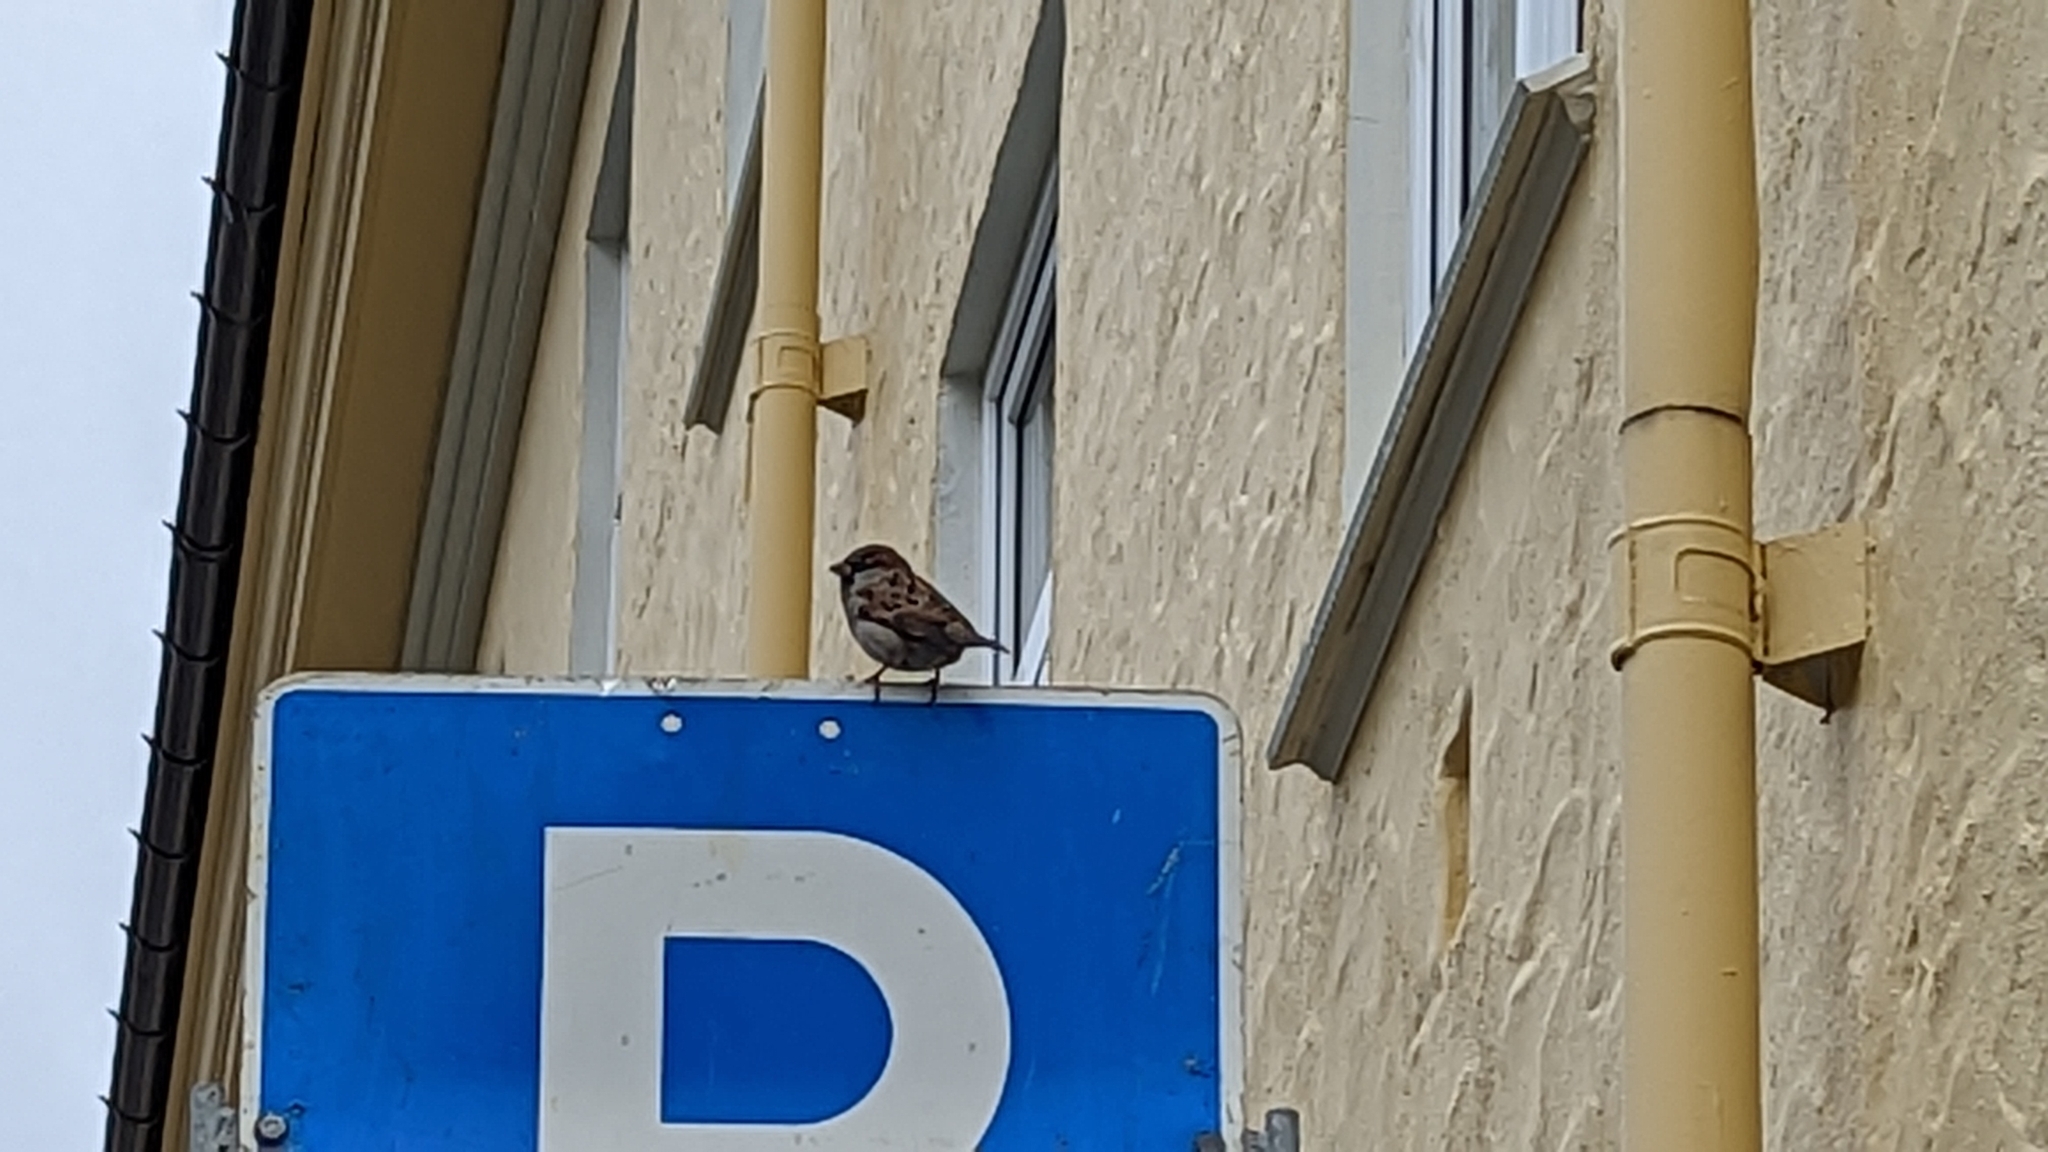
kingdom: Animalia
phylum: Chordata
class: Aves
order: Passeriformes
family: Passeridae
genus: Passer
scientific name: Passer domesticus
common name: House sparrow
